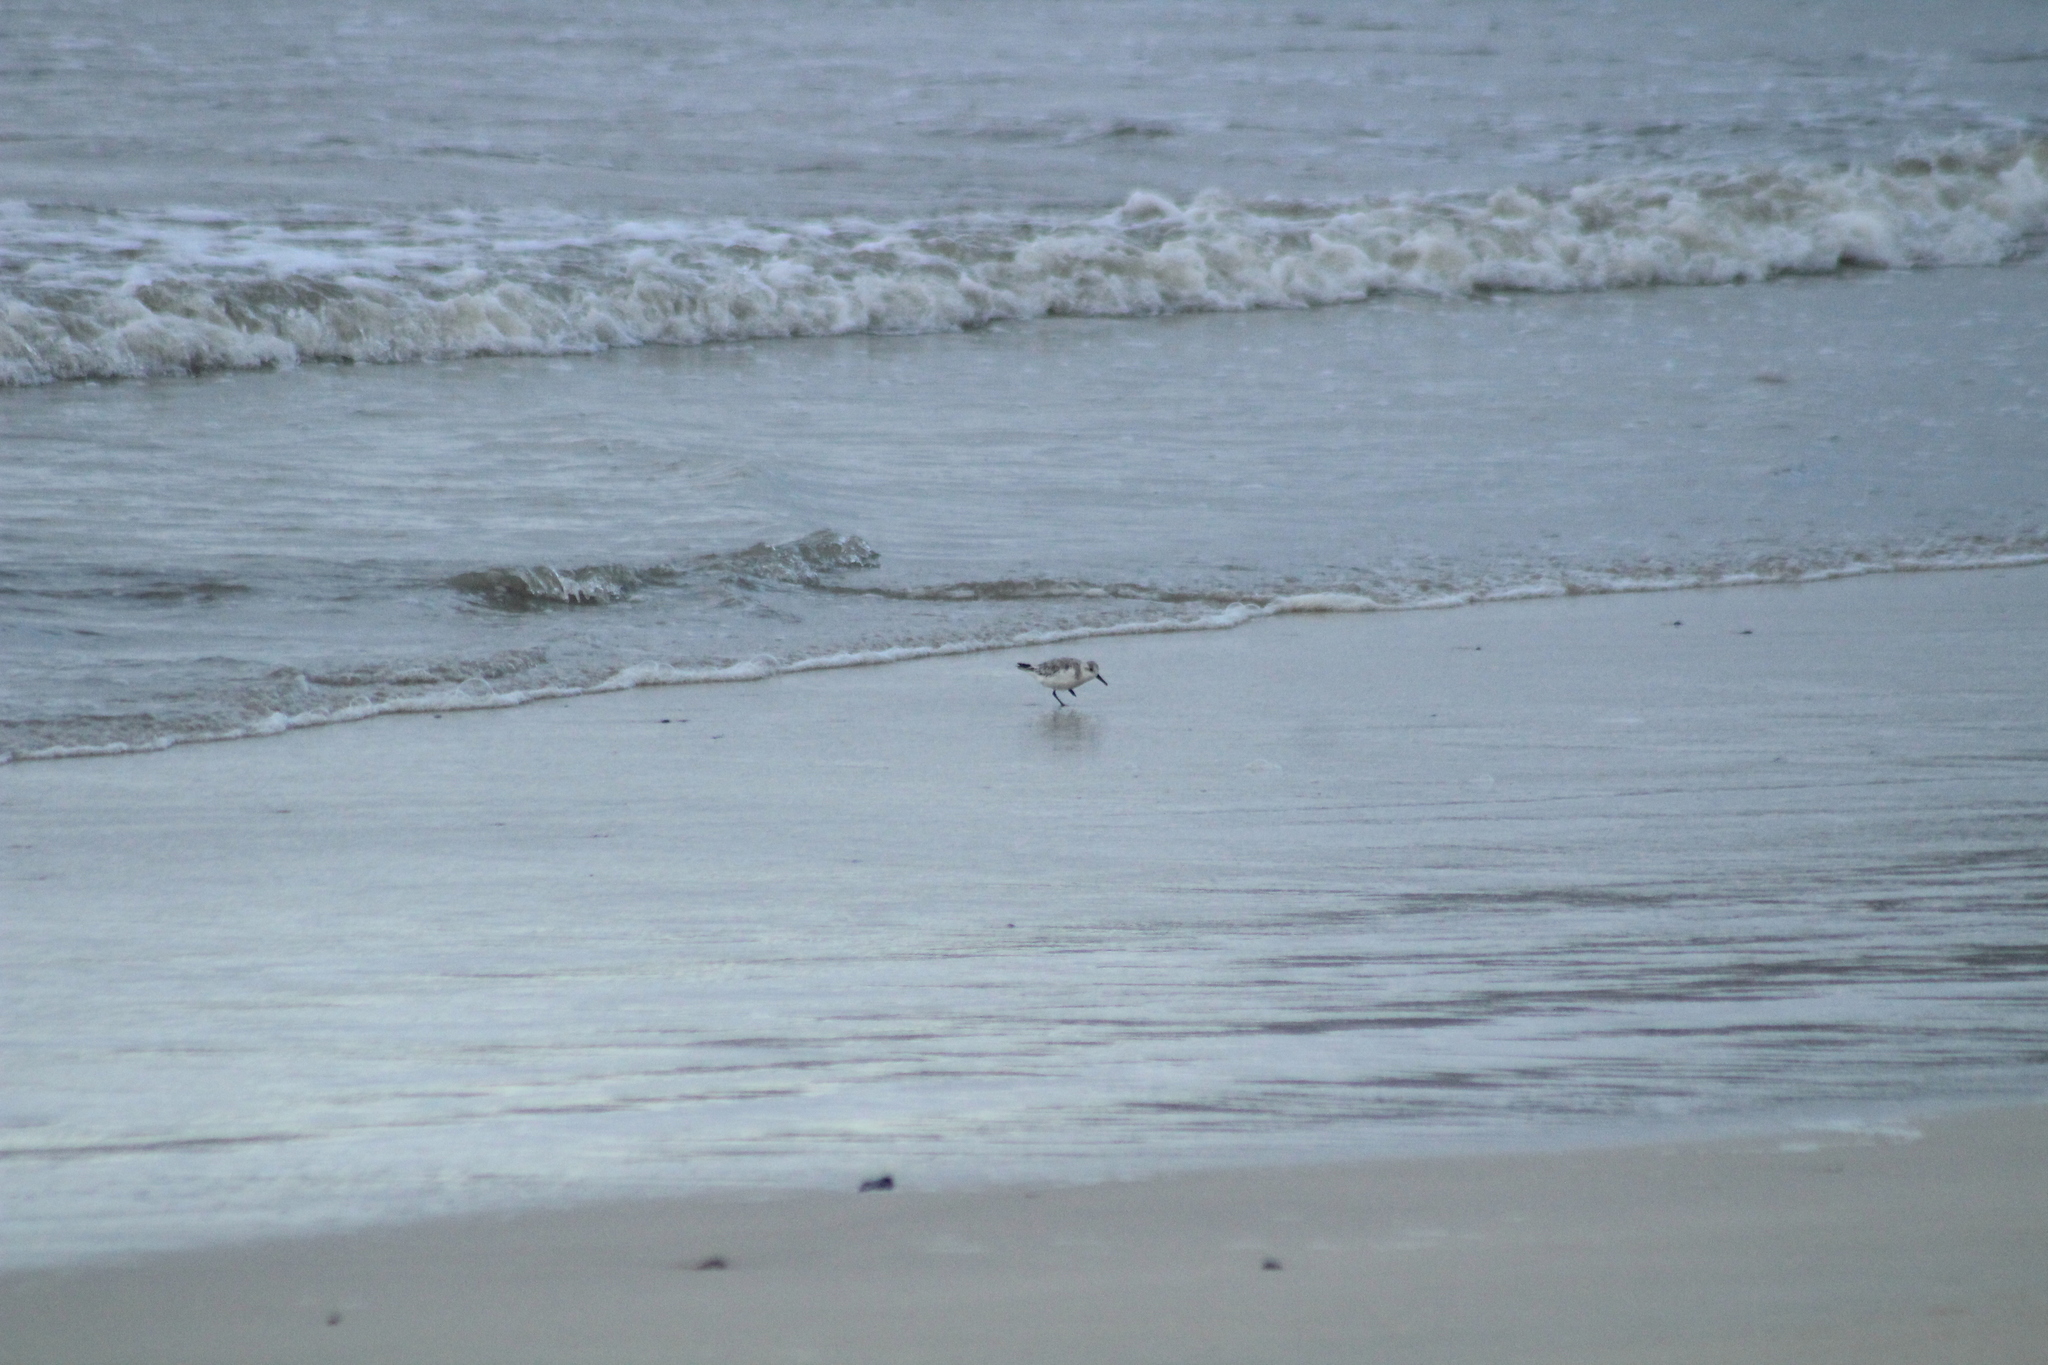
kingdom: Animalia
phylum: Chordata
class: Aves
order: Charadriiformes
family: Scolopacidae
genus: Calidris
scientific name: Calidris alba
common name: Sanderling
